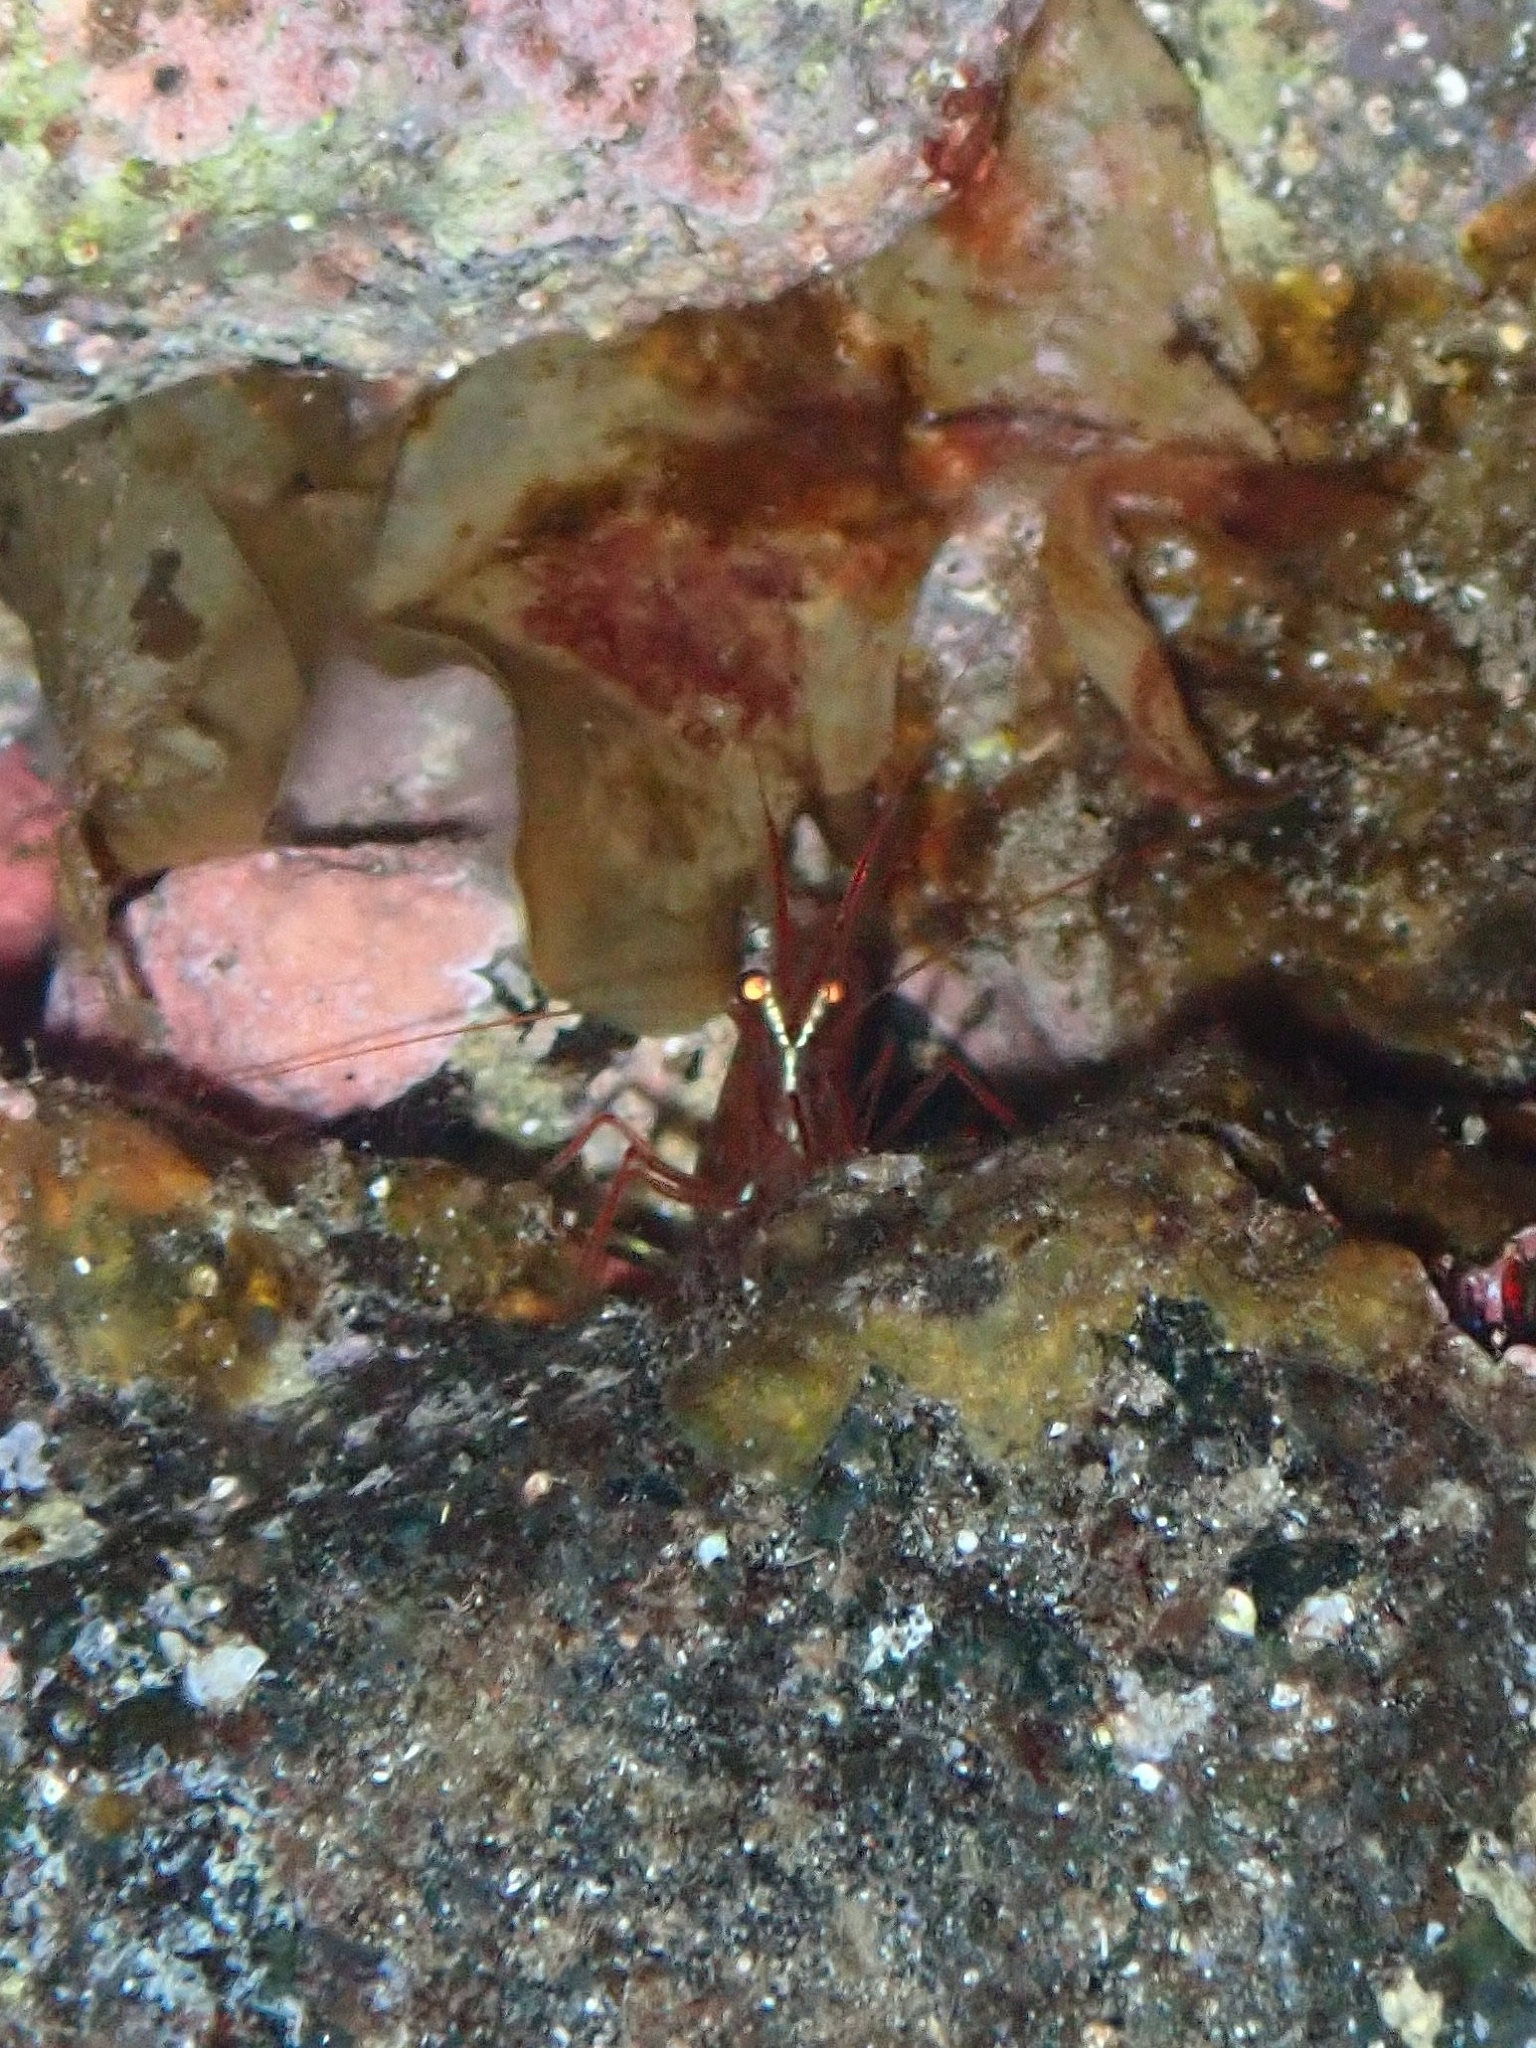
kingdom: Animalia
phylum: Arthropoda
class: Malacostraca
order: Decapoda
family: Lysmatidae
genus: Lysmata
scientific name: Lysmata seticaudata
